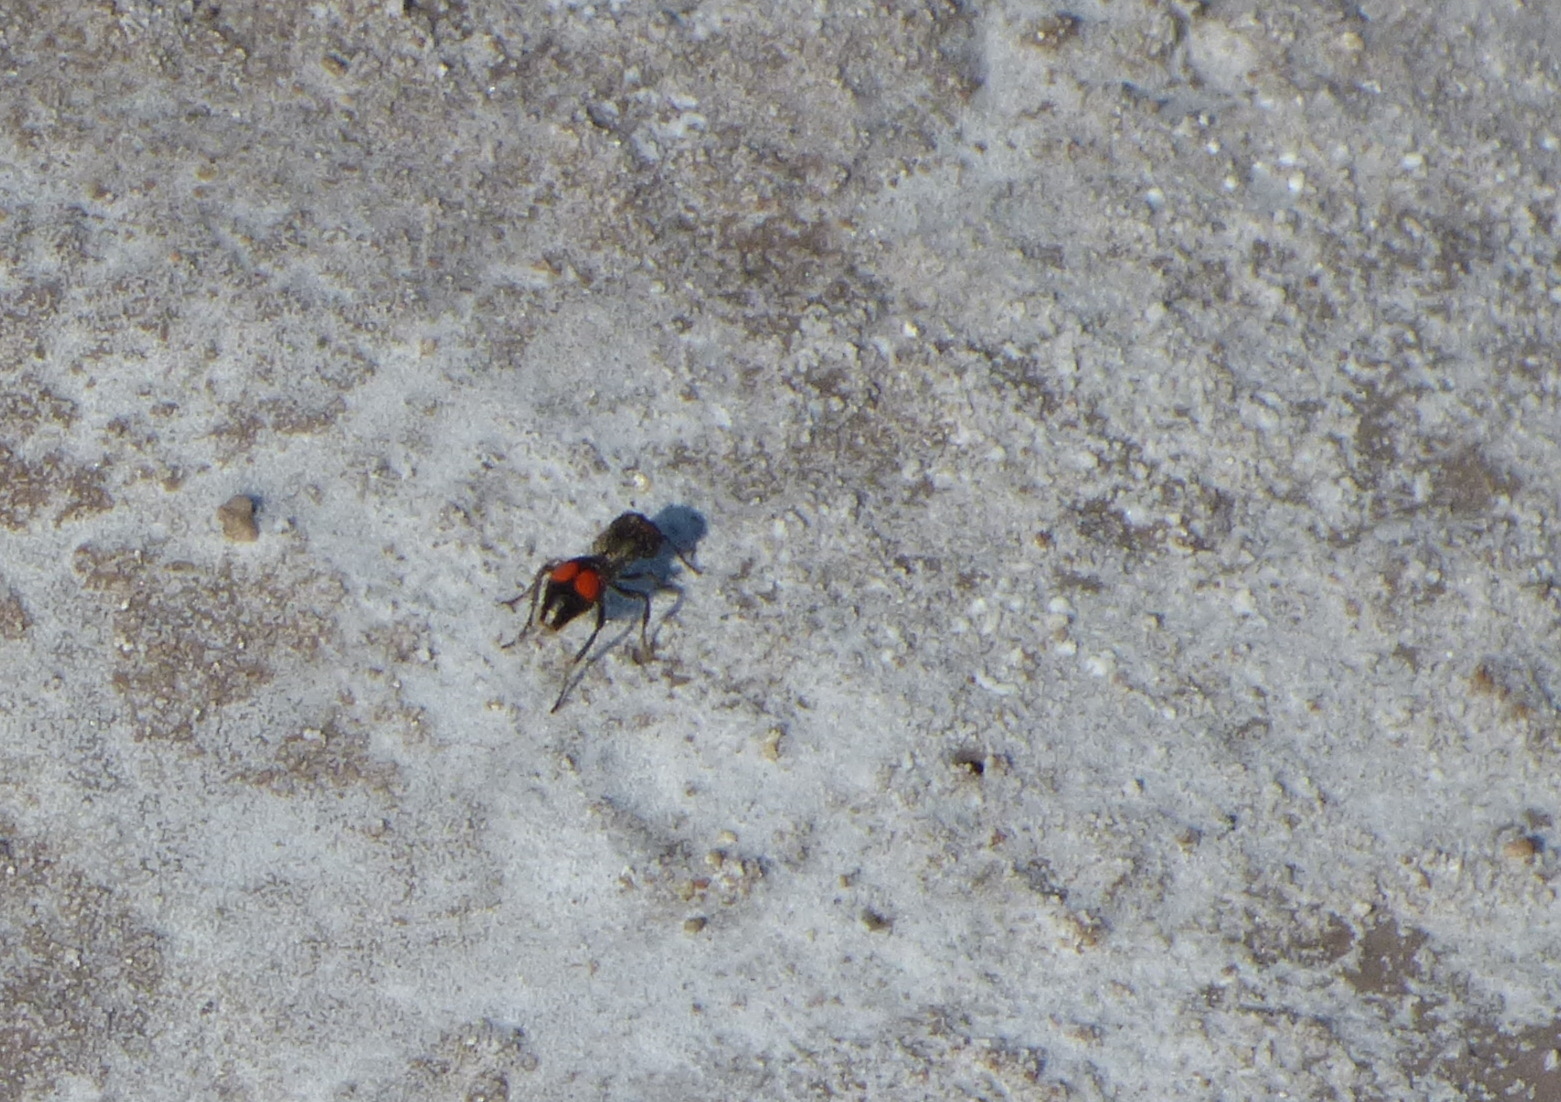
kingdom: Animalia
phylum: Arthropoda
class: Insecta
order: Hymenoptera
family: Mutillidae
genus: Cephalomutilla
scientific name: Cephalomutilla
